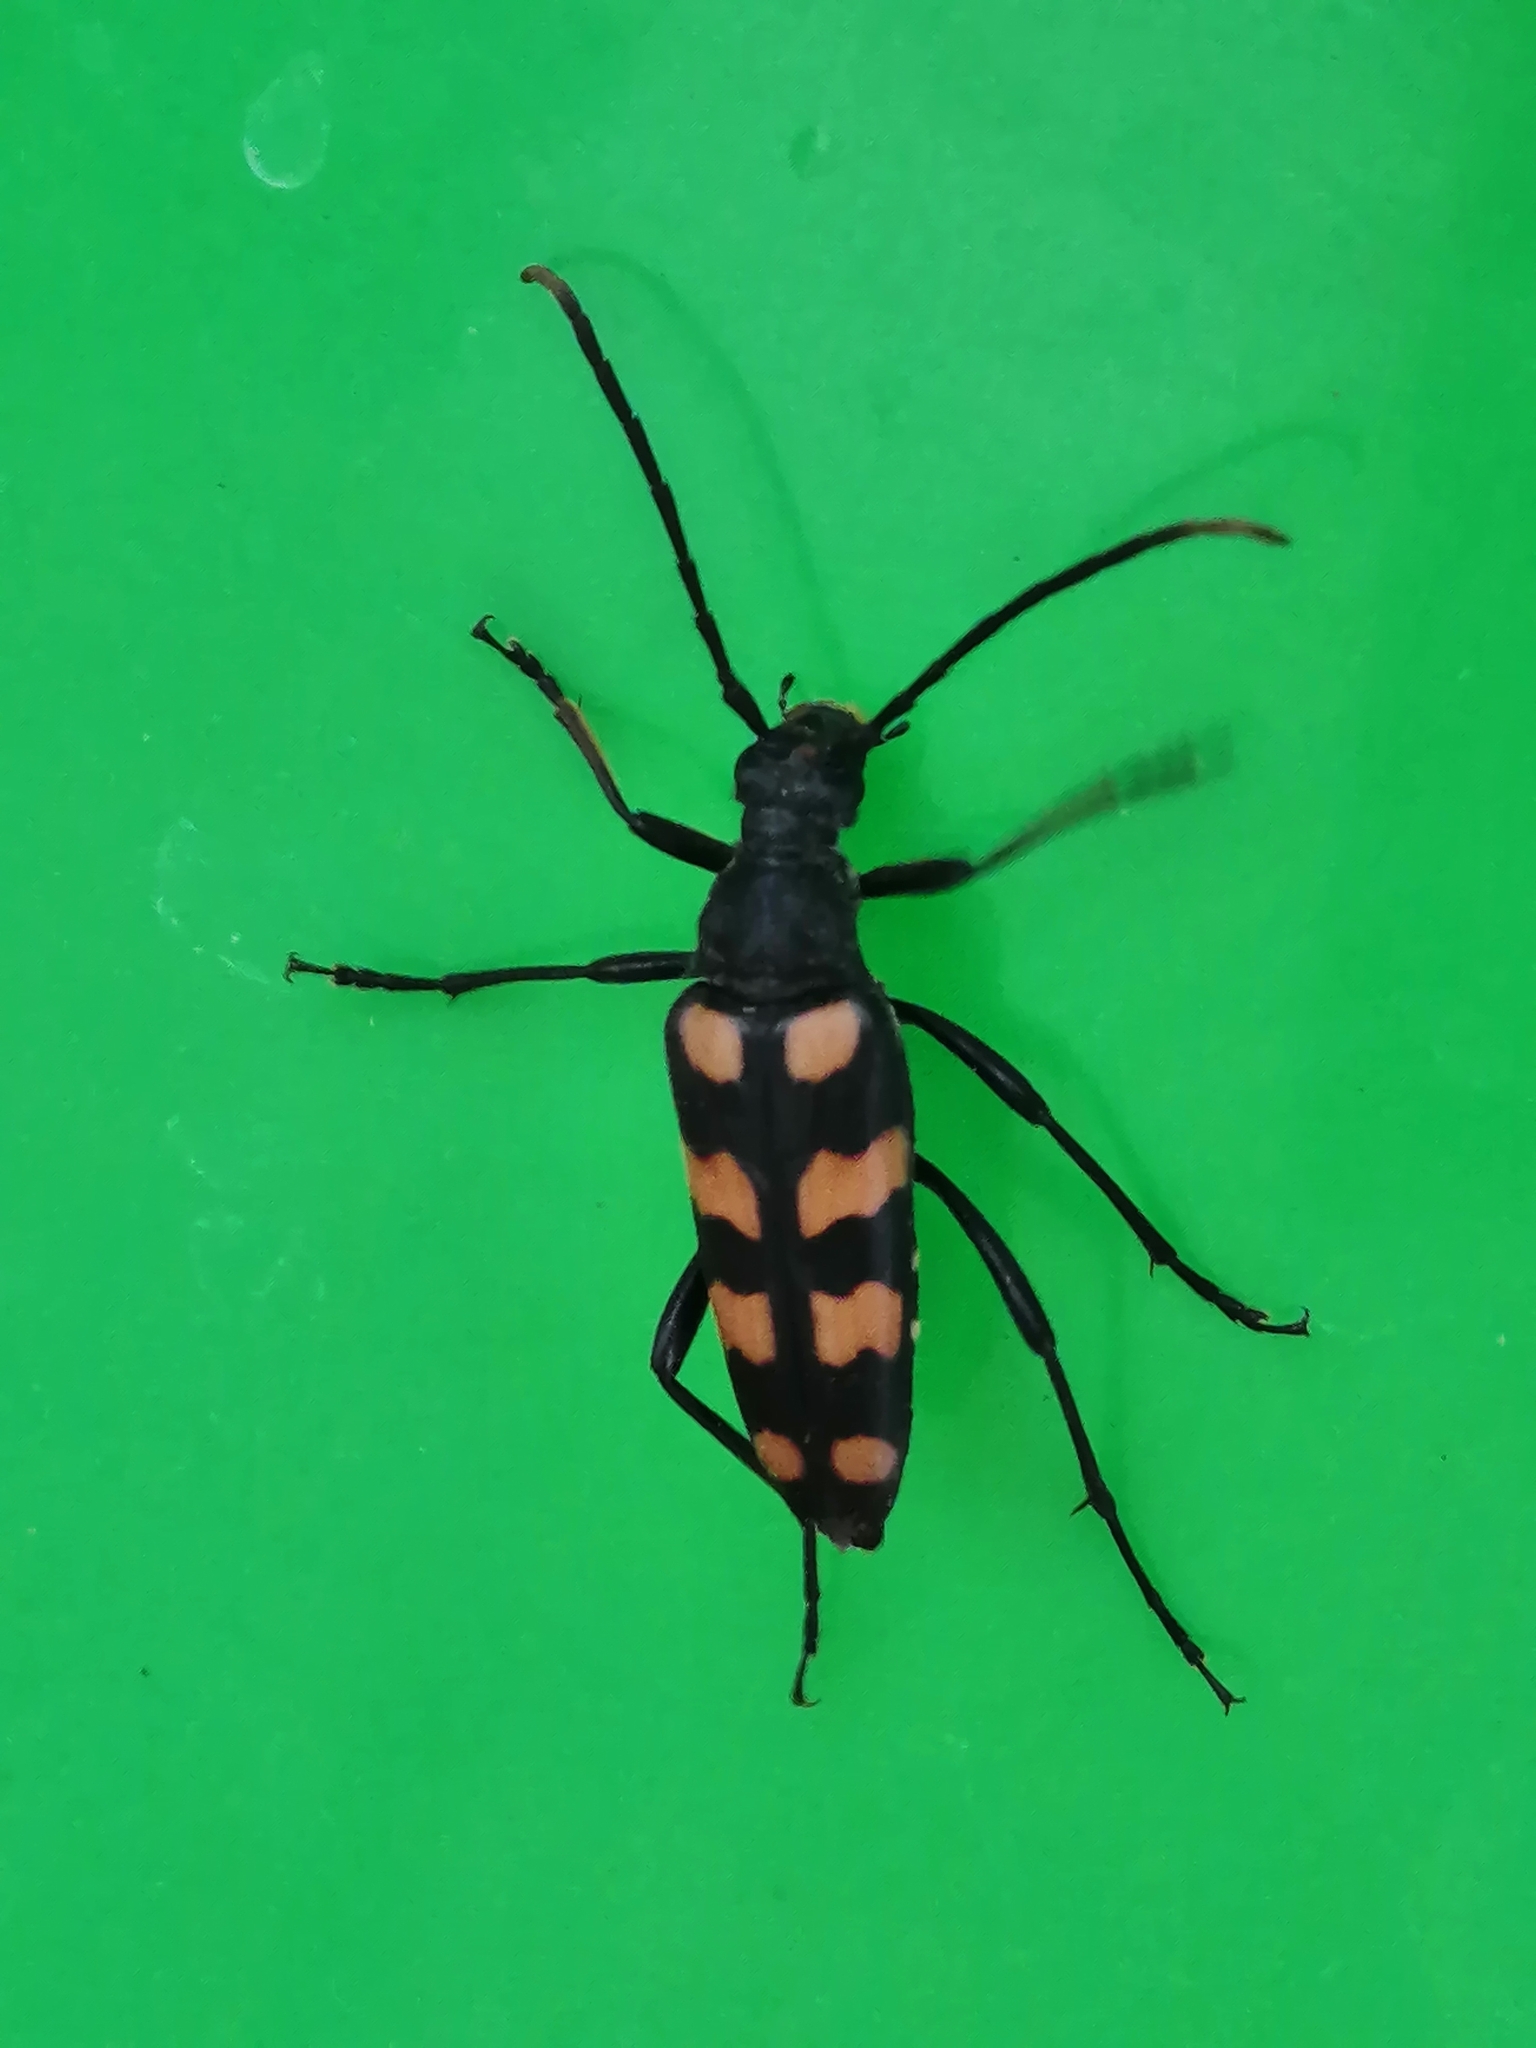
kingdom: Animalia
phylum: Arthropoda
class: Insecta
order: Coleoptera
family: Cerambycidae
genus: Leptura
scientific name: Leptura quadrifasciata
